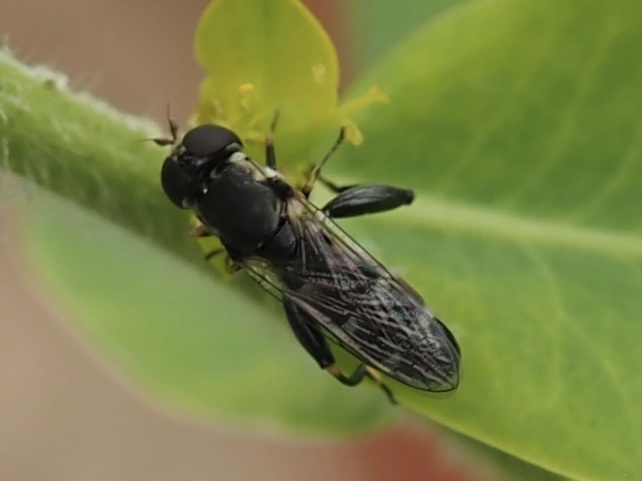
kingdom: Animalia
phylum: Arthropoda
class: Insecta
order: Diptera
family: Syrphidae
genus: Syritta
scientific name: Syritta pipiens
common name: Hover fly
